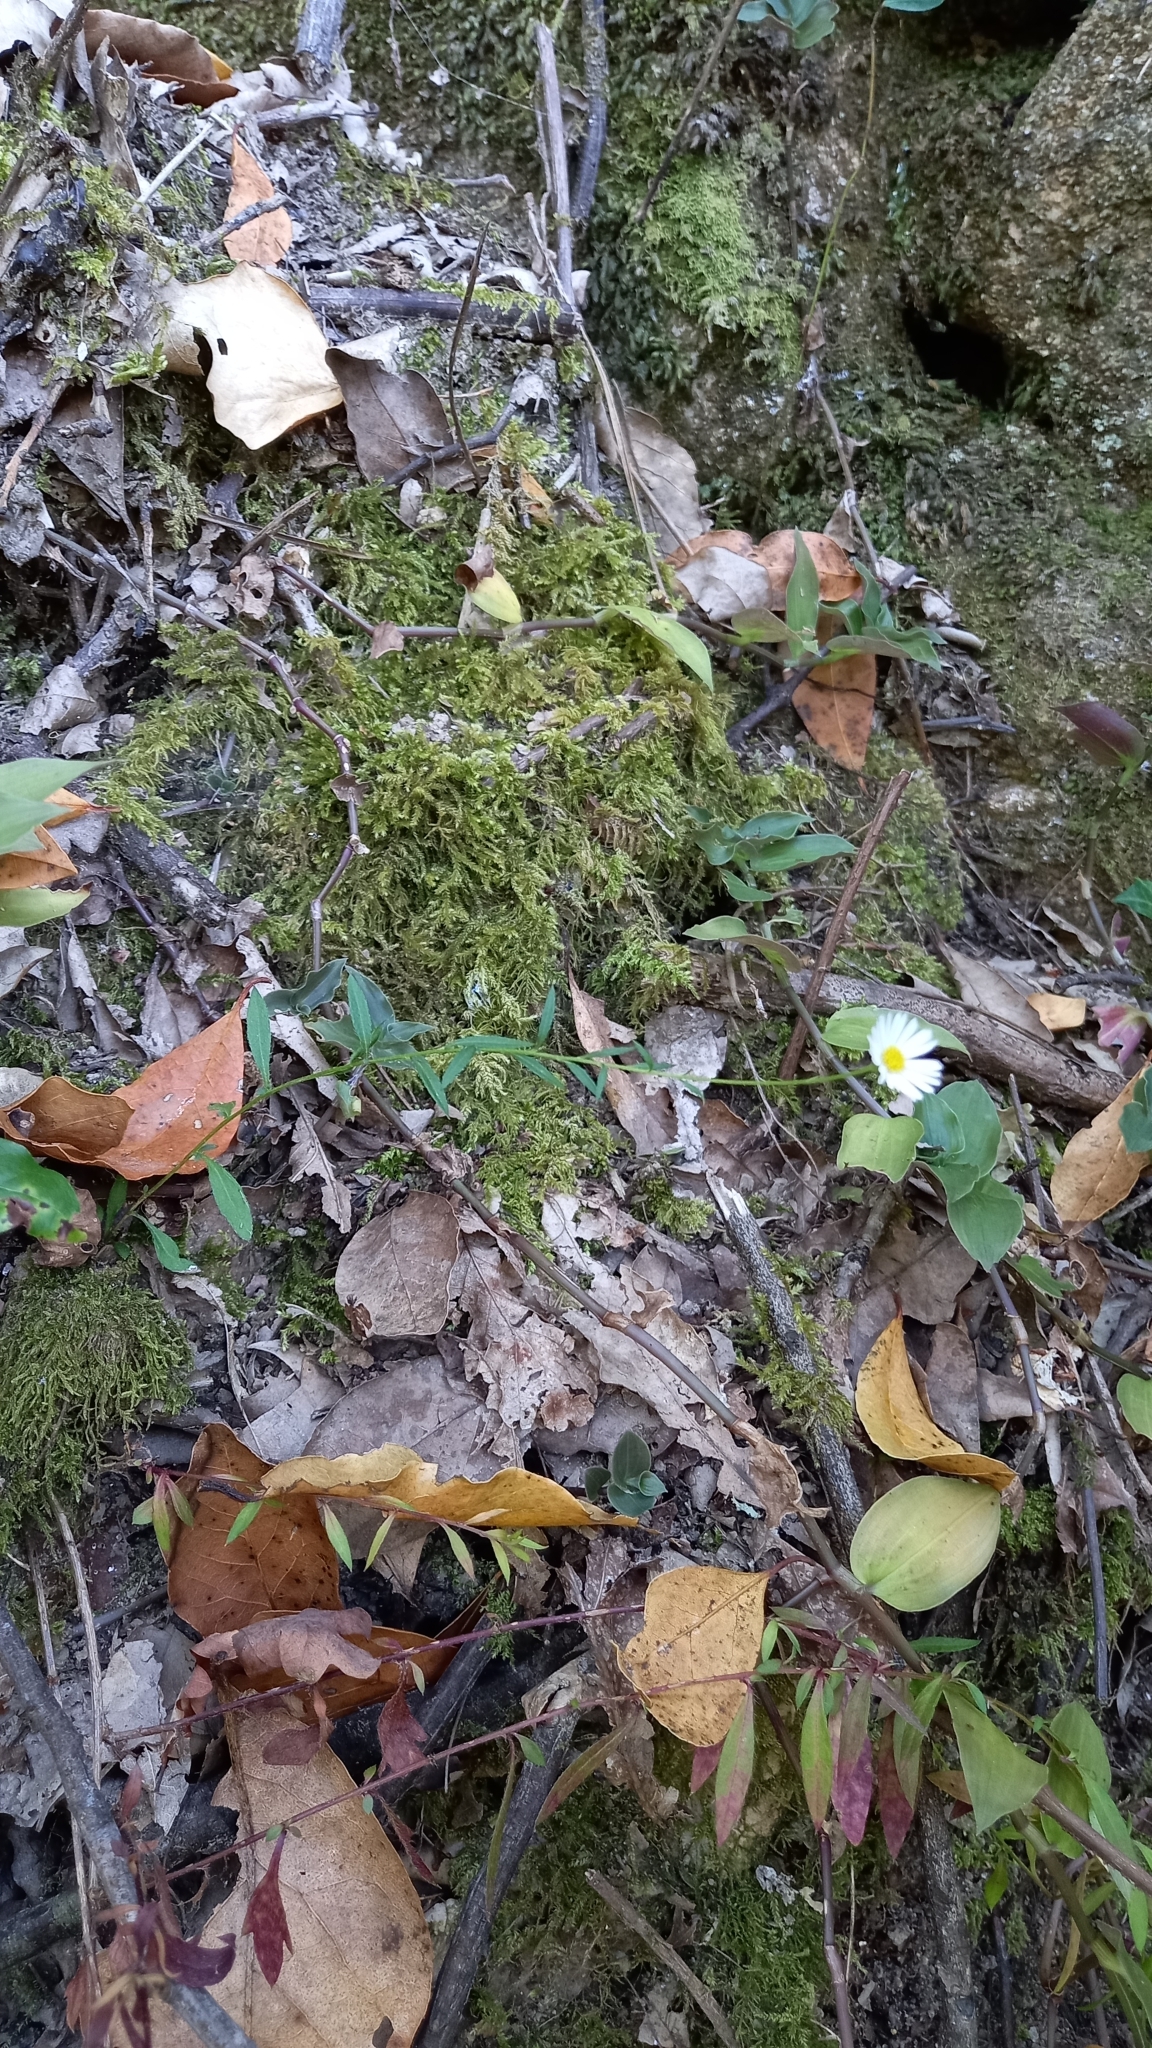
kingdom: Plantae
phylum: Tracheophyta
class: Magnoliopsida
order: Asterales
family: Asteraceae
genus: Erigeron
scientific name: Erigeron karvinskianus
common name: Mexican fleabane
